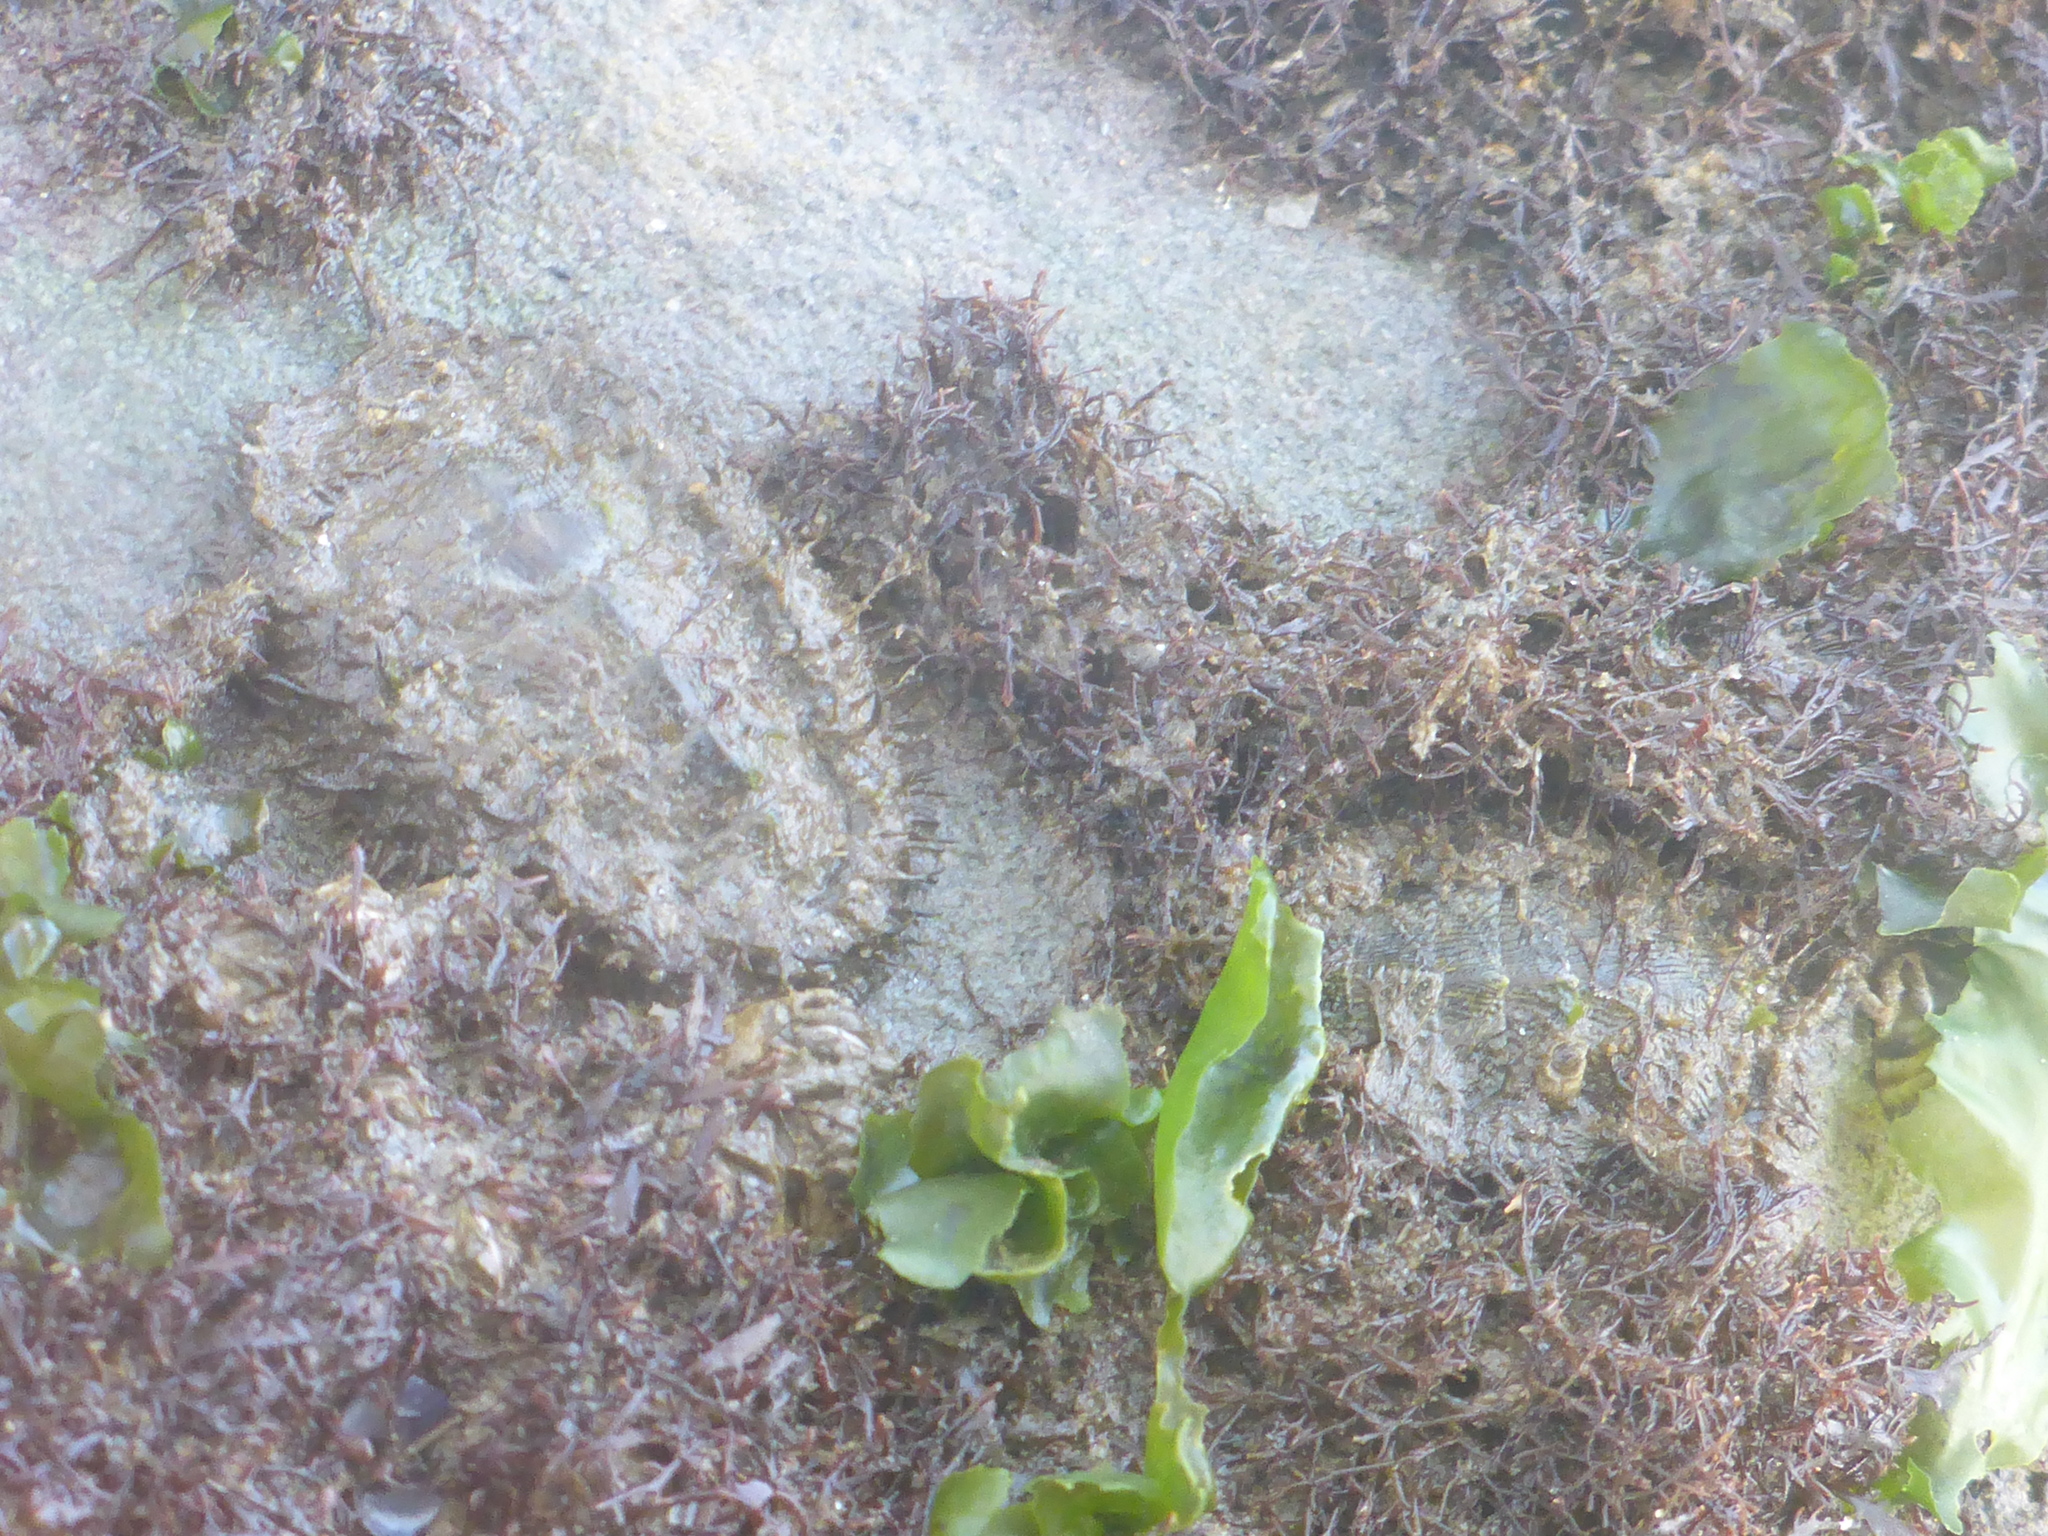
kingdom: Animalia
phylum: Mollusca
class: Polyplacophora
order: Chitonida
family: Mopaliidae
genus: Mopalia
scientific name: Mopalia muscosa
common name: Mossy chiton
